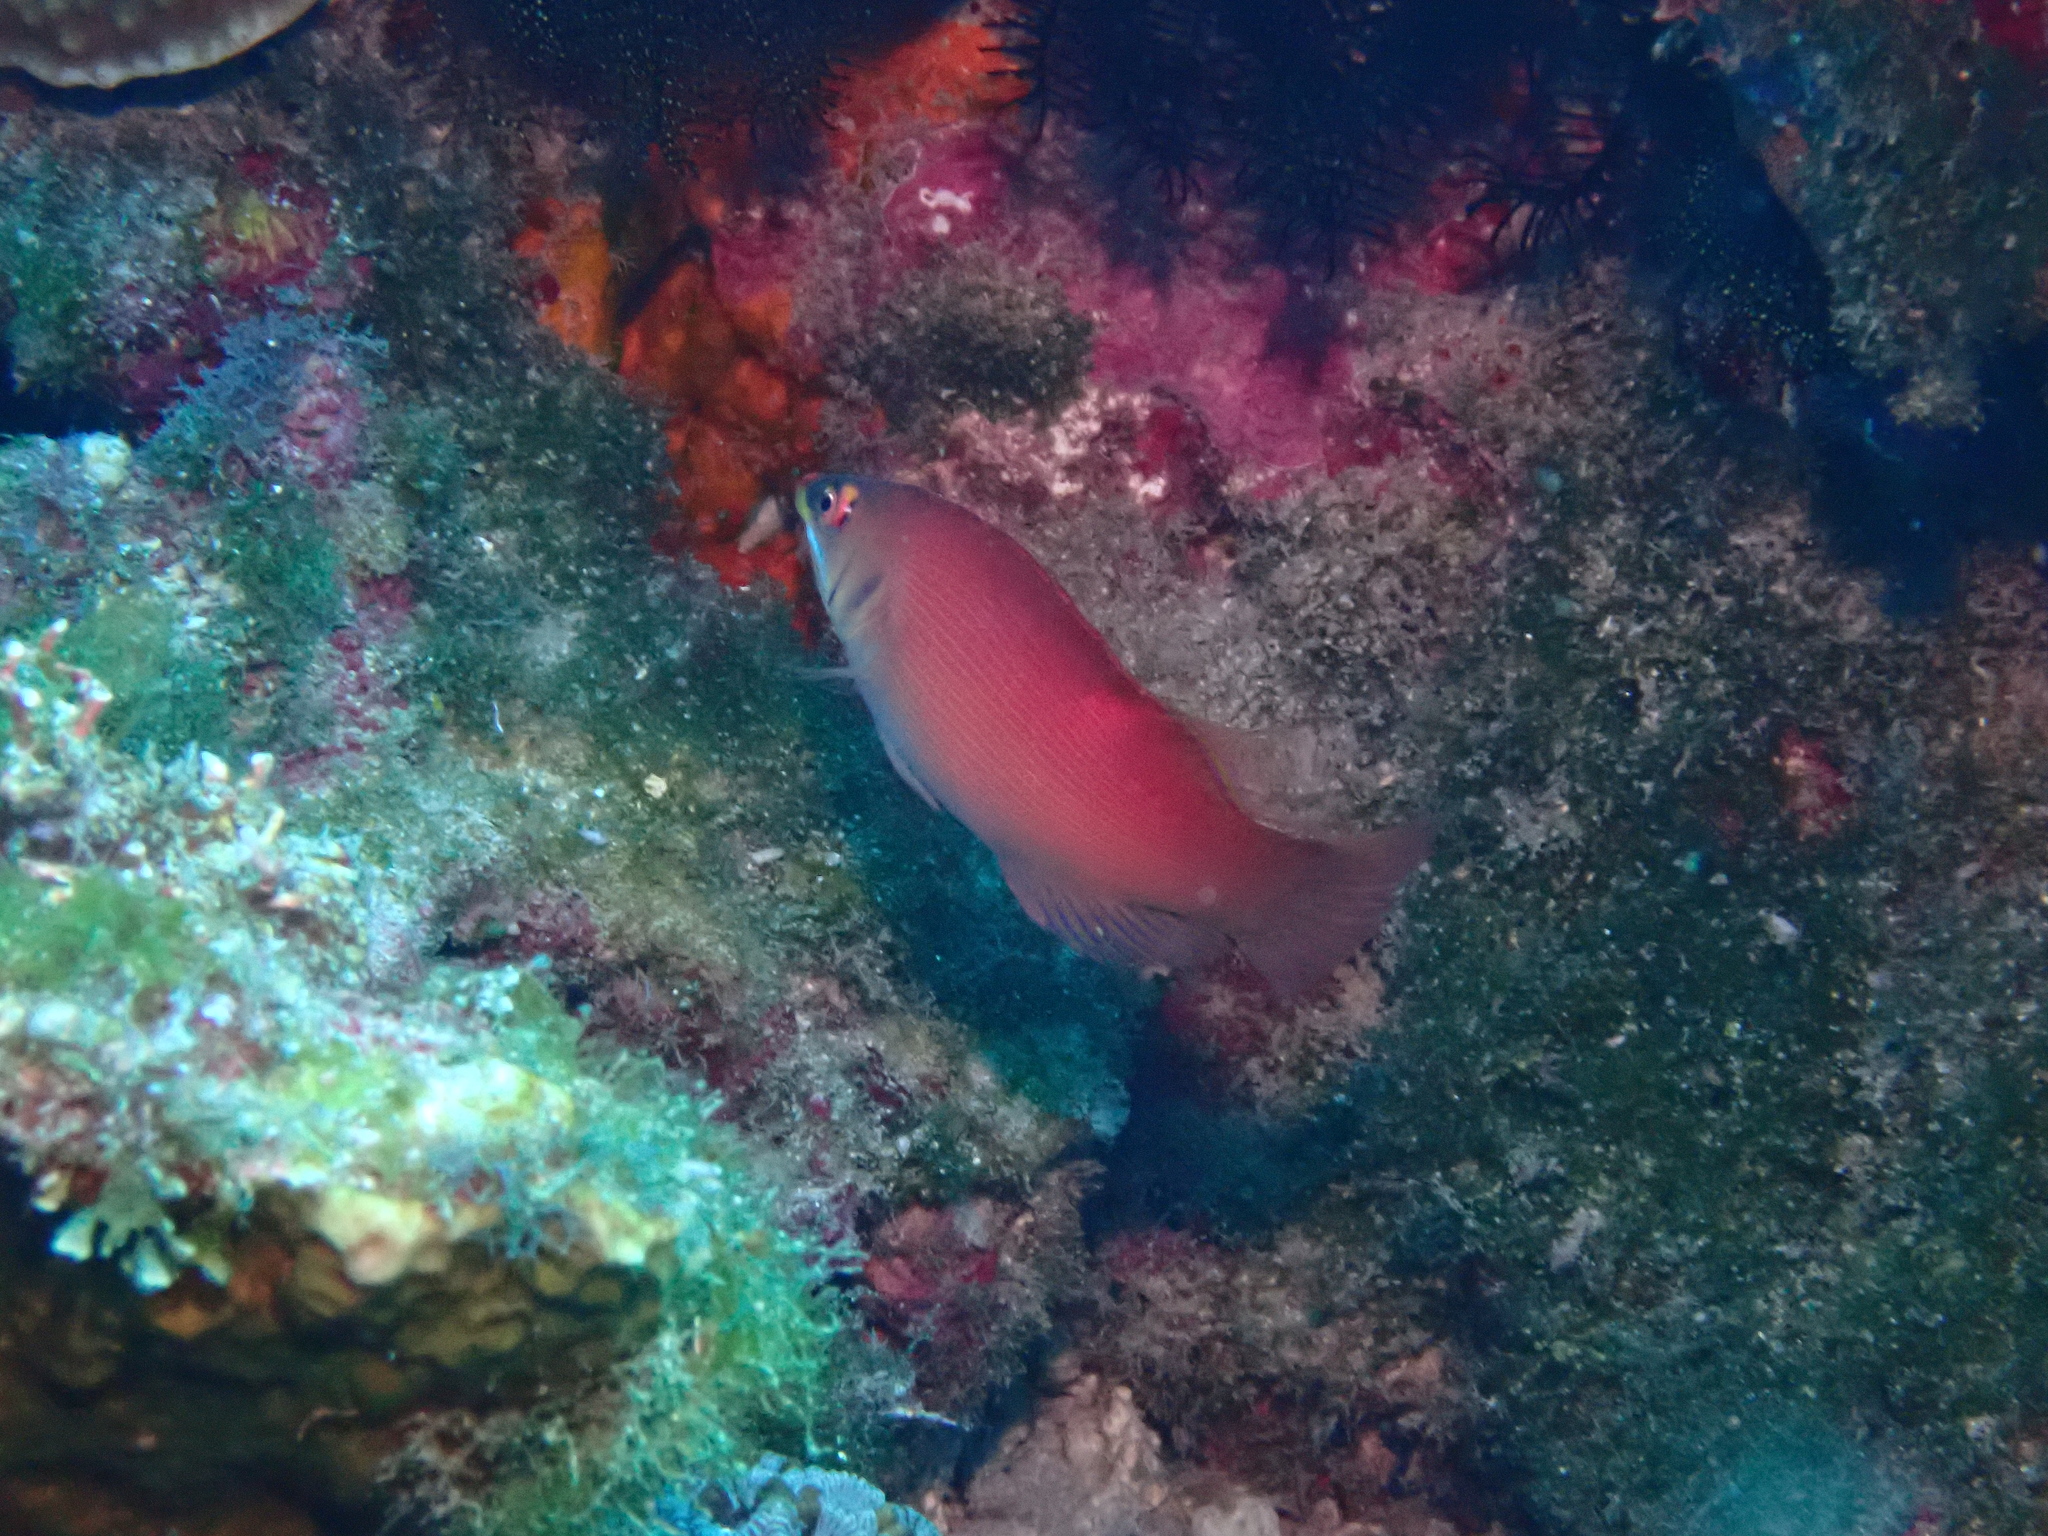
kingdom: Animalia
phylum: Chordata
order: Perciformes
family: Labridae
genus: Pseudocheilinus
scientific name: Pseudocheilinus evanidus
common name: Disappearing wrasse
